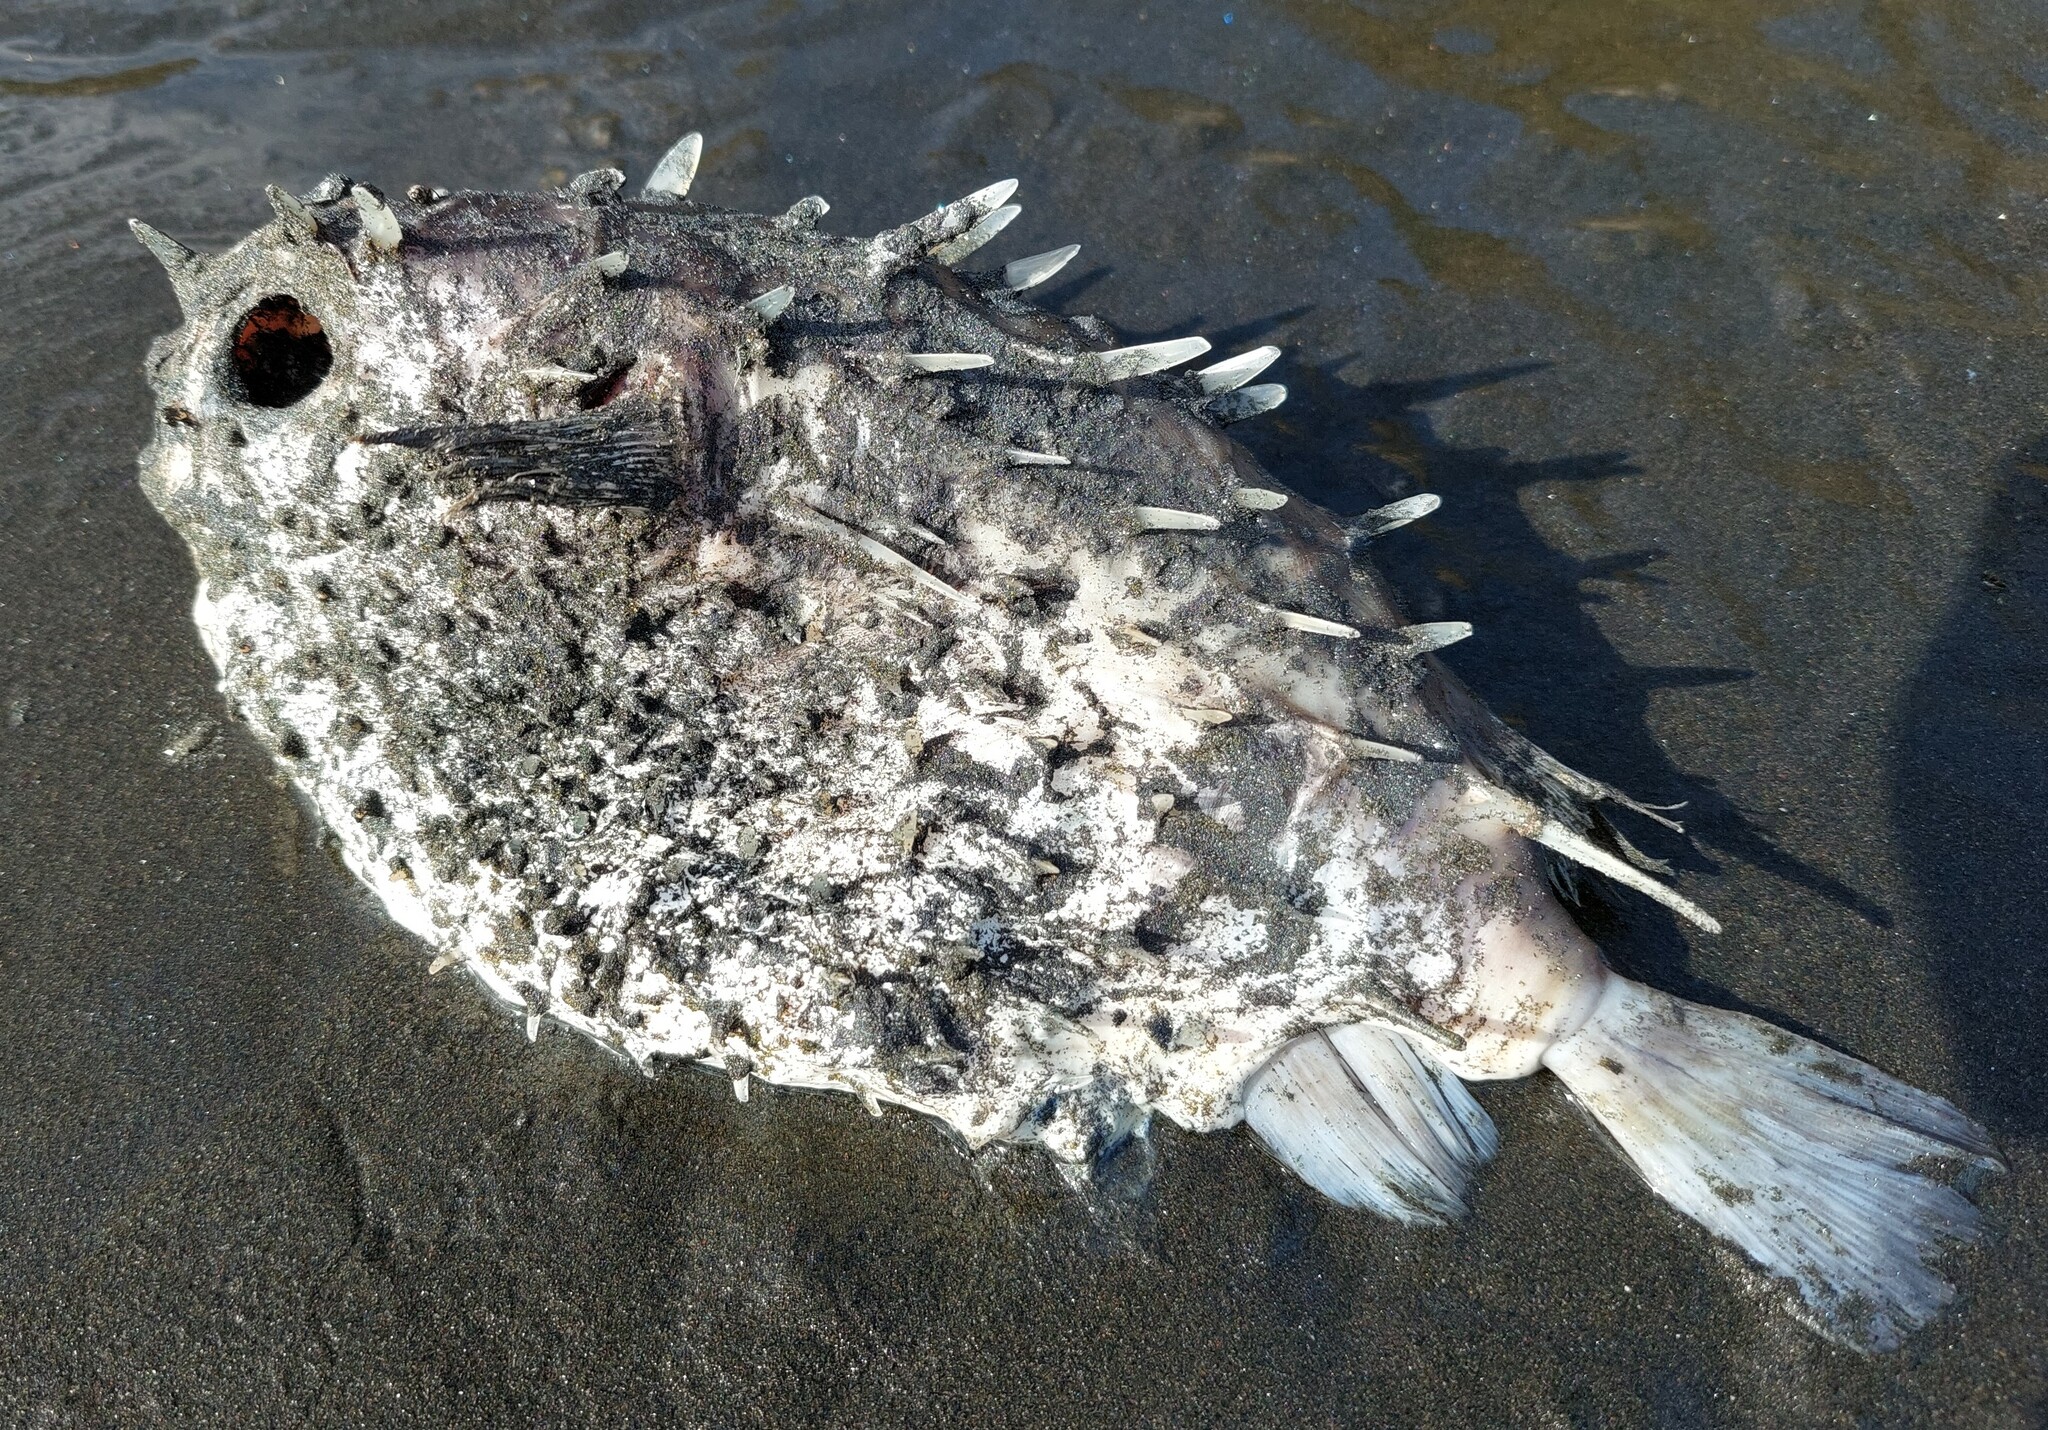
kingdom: Animalia
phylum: Chordata
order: Tetraodontiformes
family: Diodontidae
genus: Allomycterus
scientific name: Allomycterus pilatus
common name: No common name
